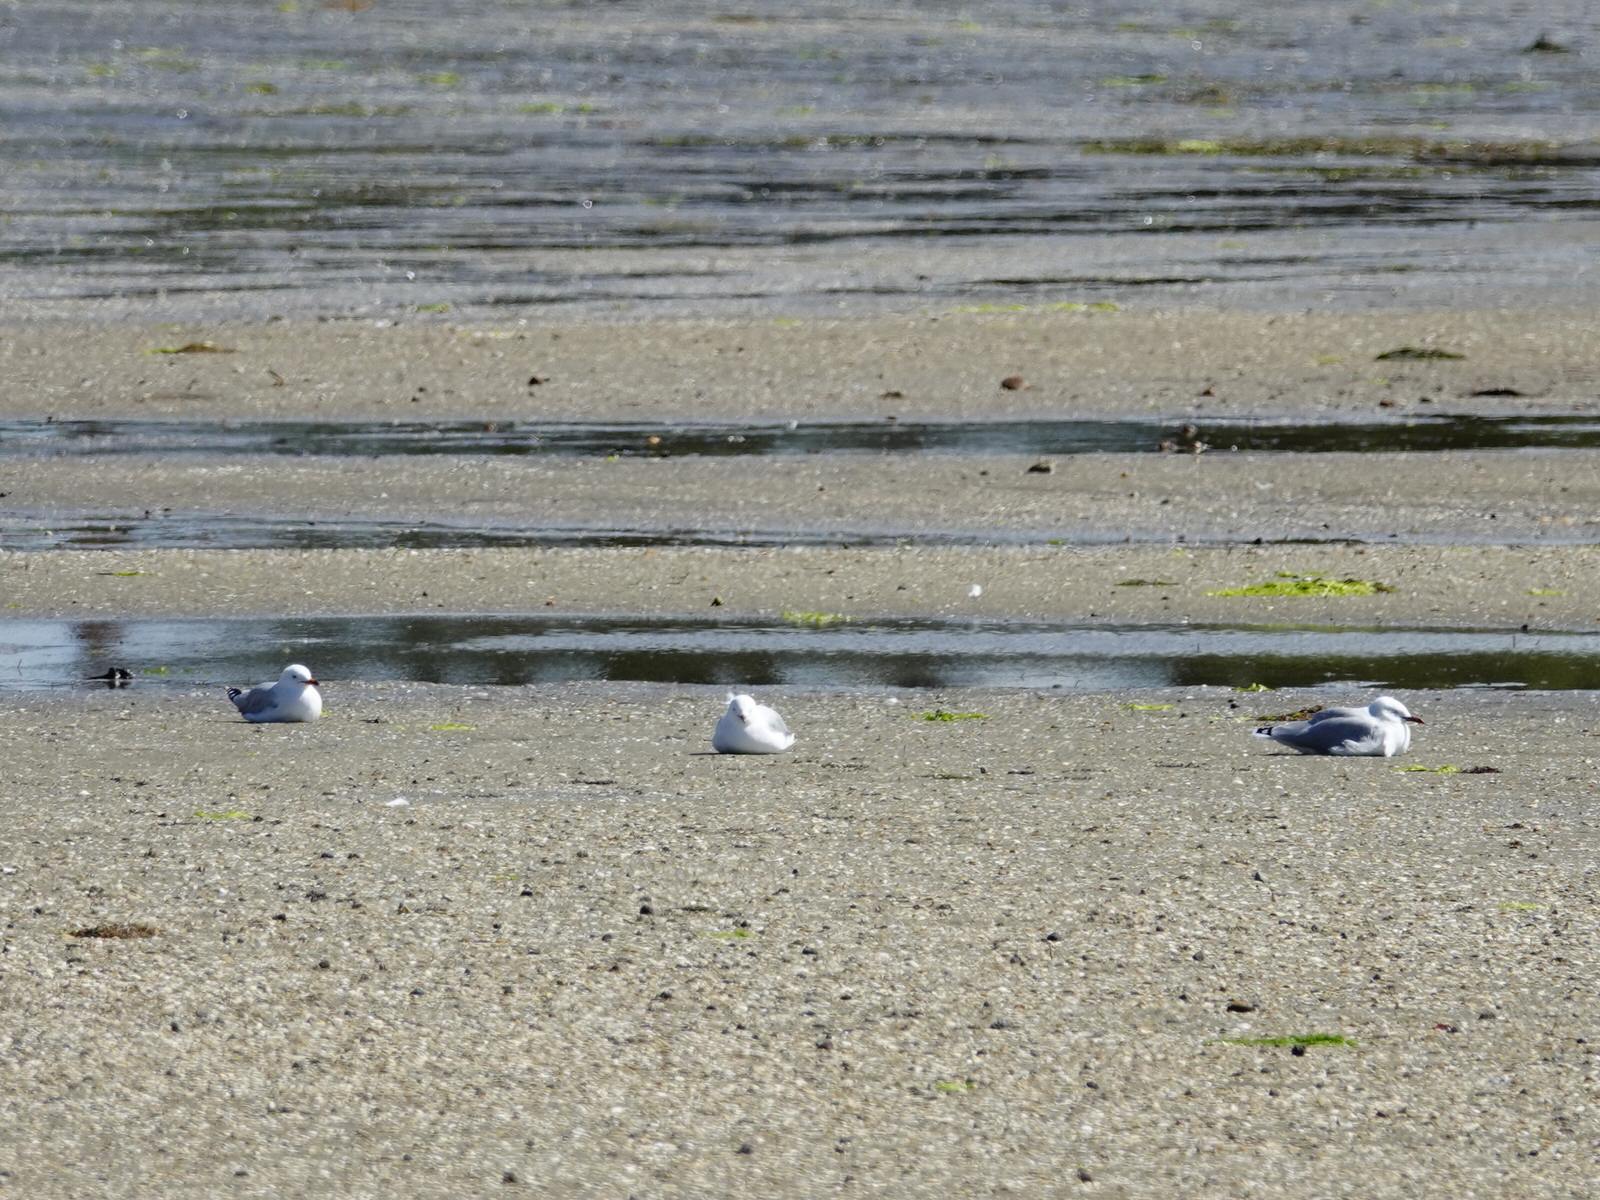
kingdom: Animalia
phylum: Chordata
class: Aves
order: Charadriiformes
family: Laridae
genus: Chroicocephalus
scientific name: Chroicocephalus novaehollandiae
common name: Silver gull
